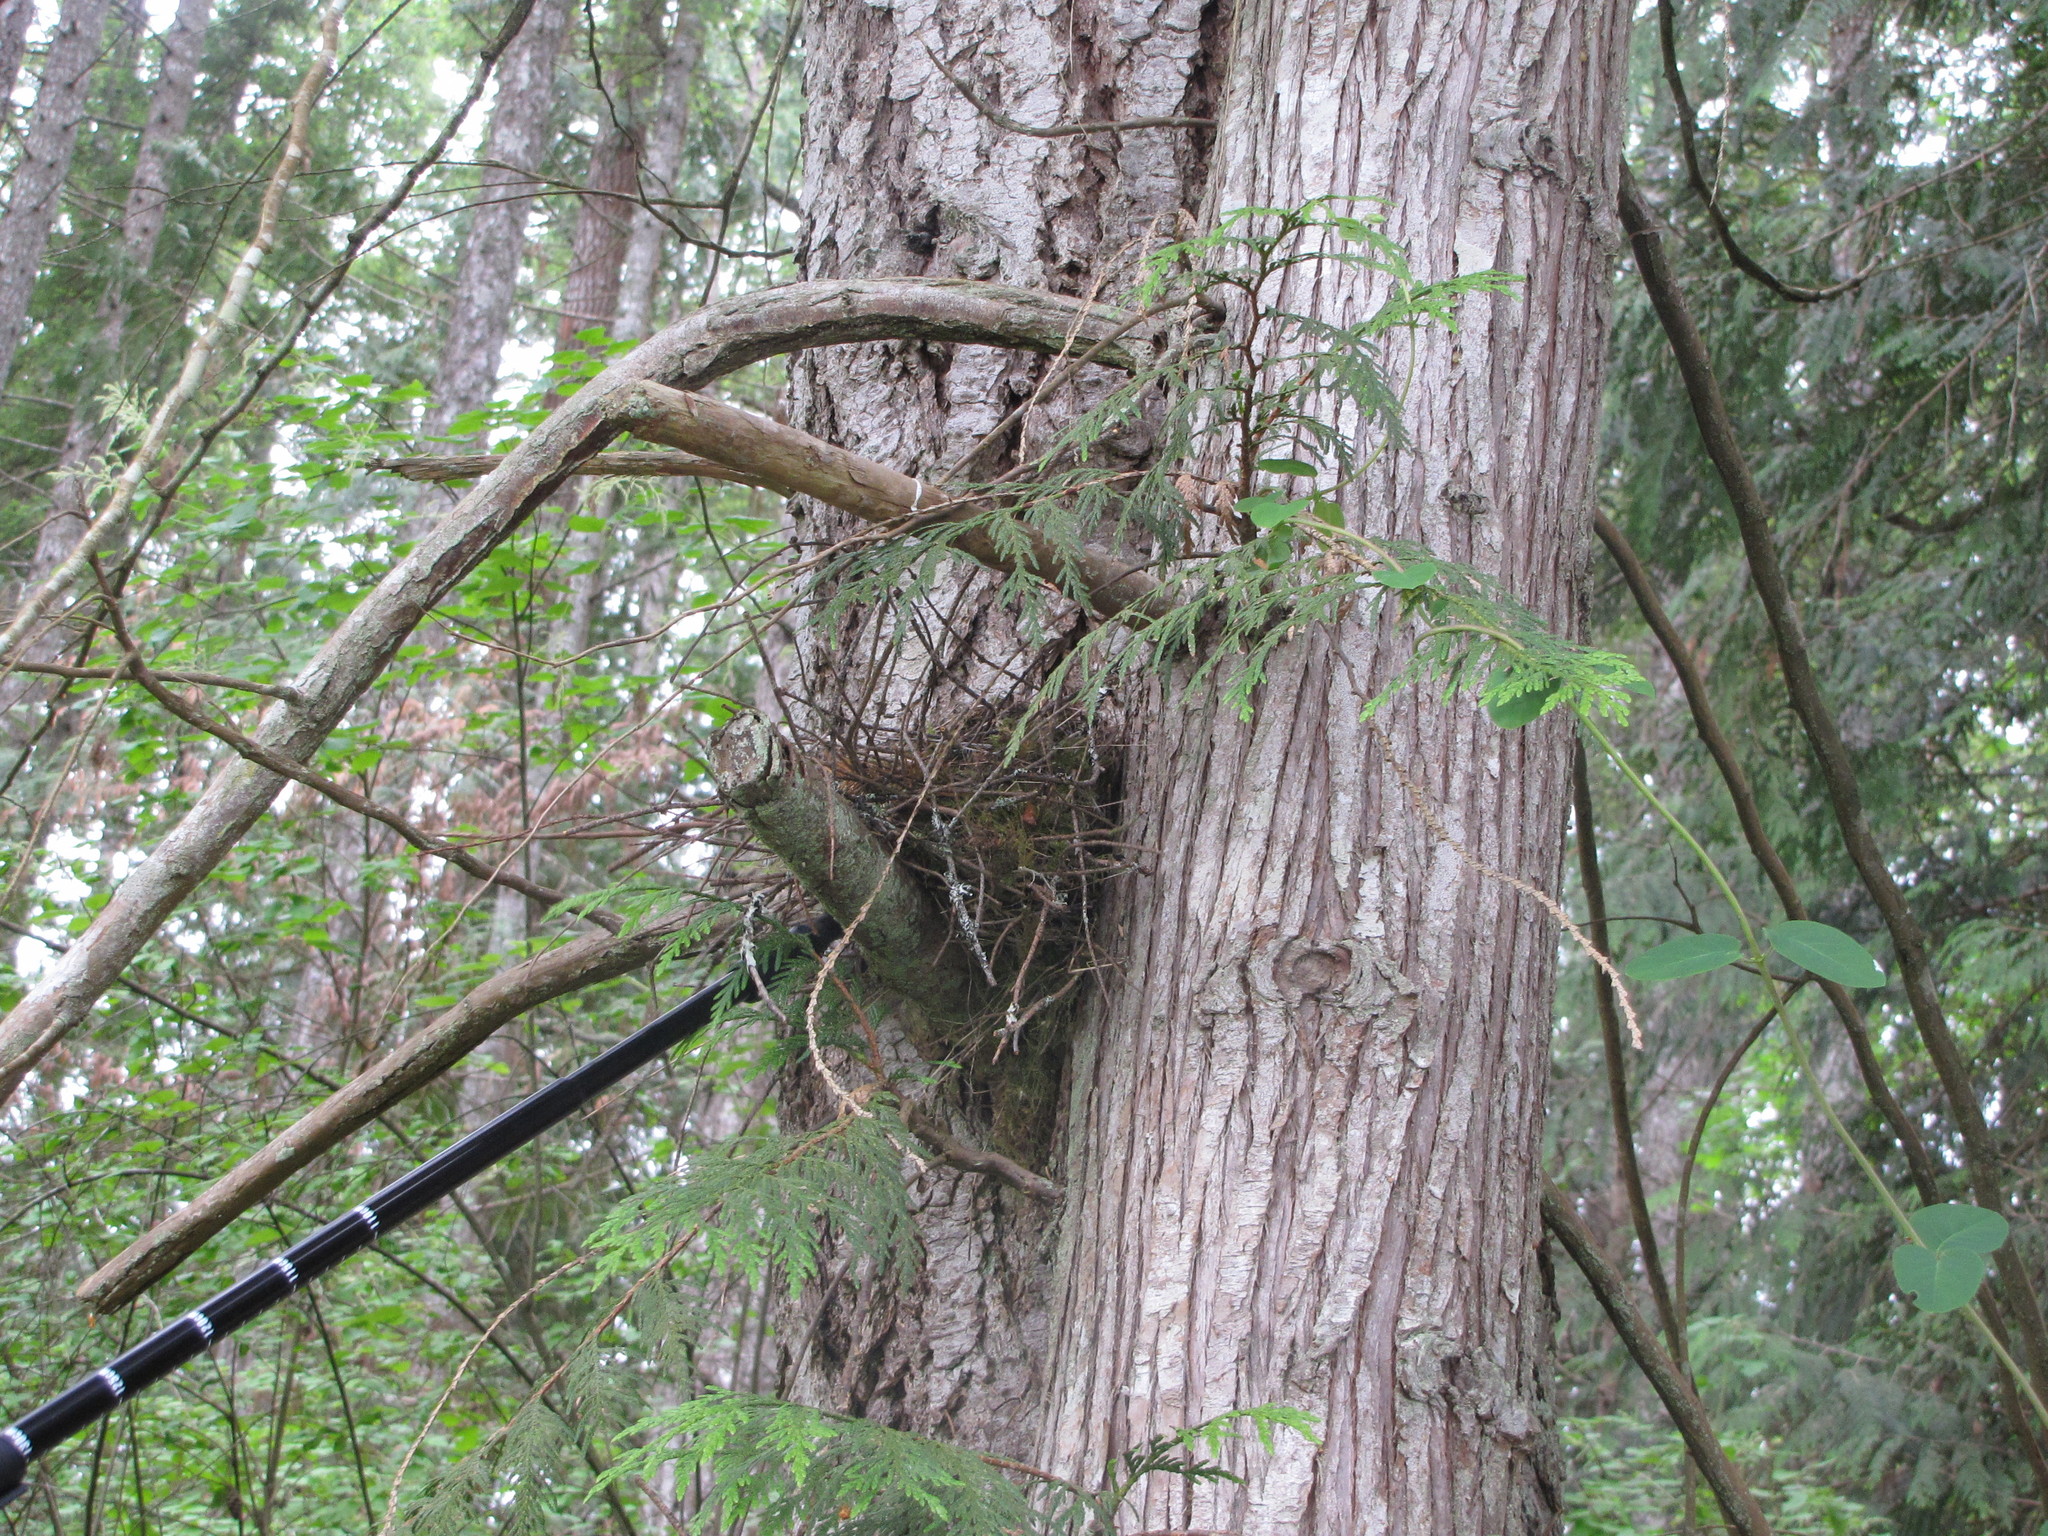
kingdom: Plantae
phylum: Tracheophyta
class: Pinopsida
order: Pinales
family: Cupressaceae
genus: Thuja
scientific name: Thuja plicata
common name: Western red-cedar
